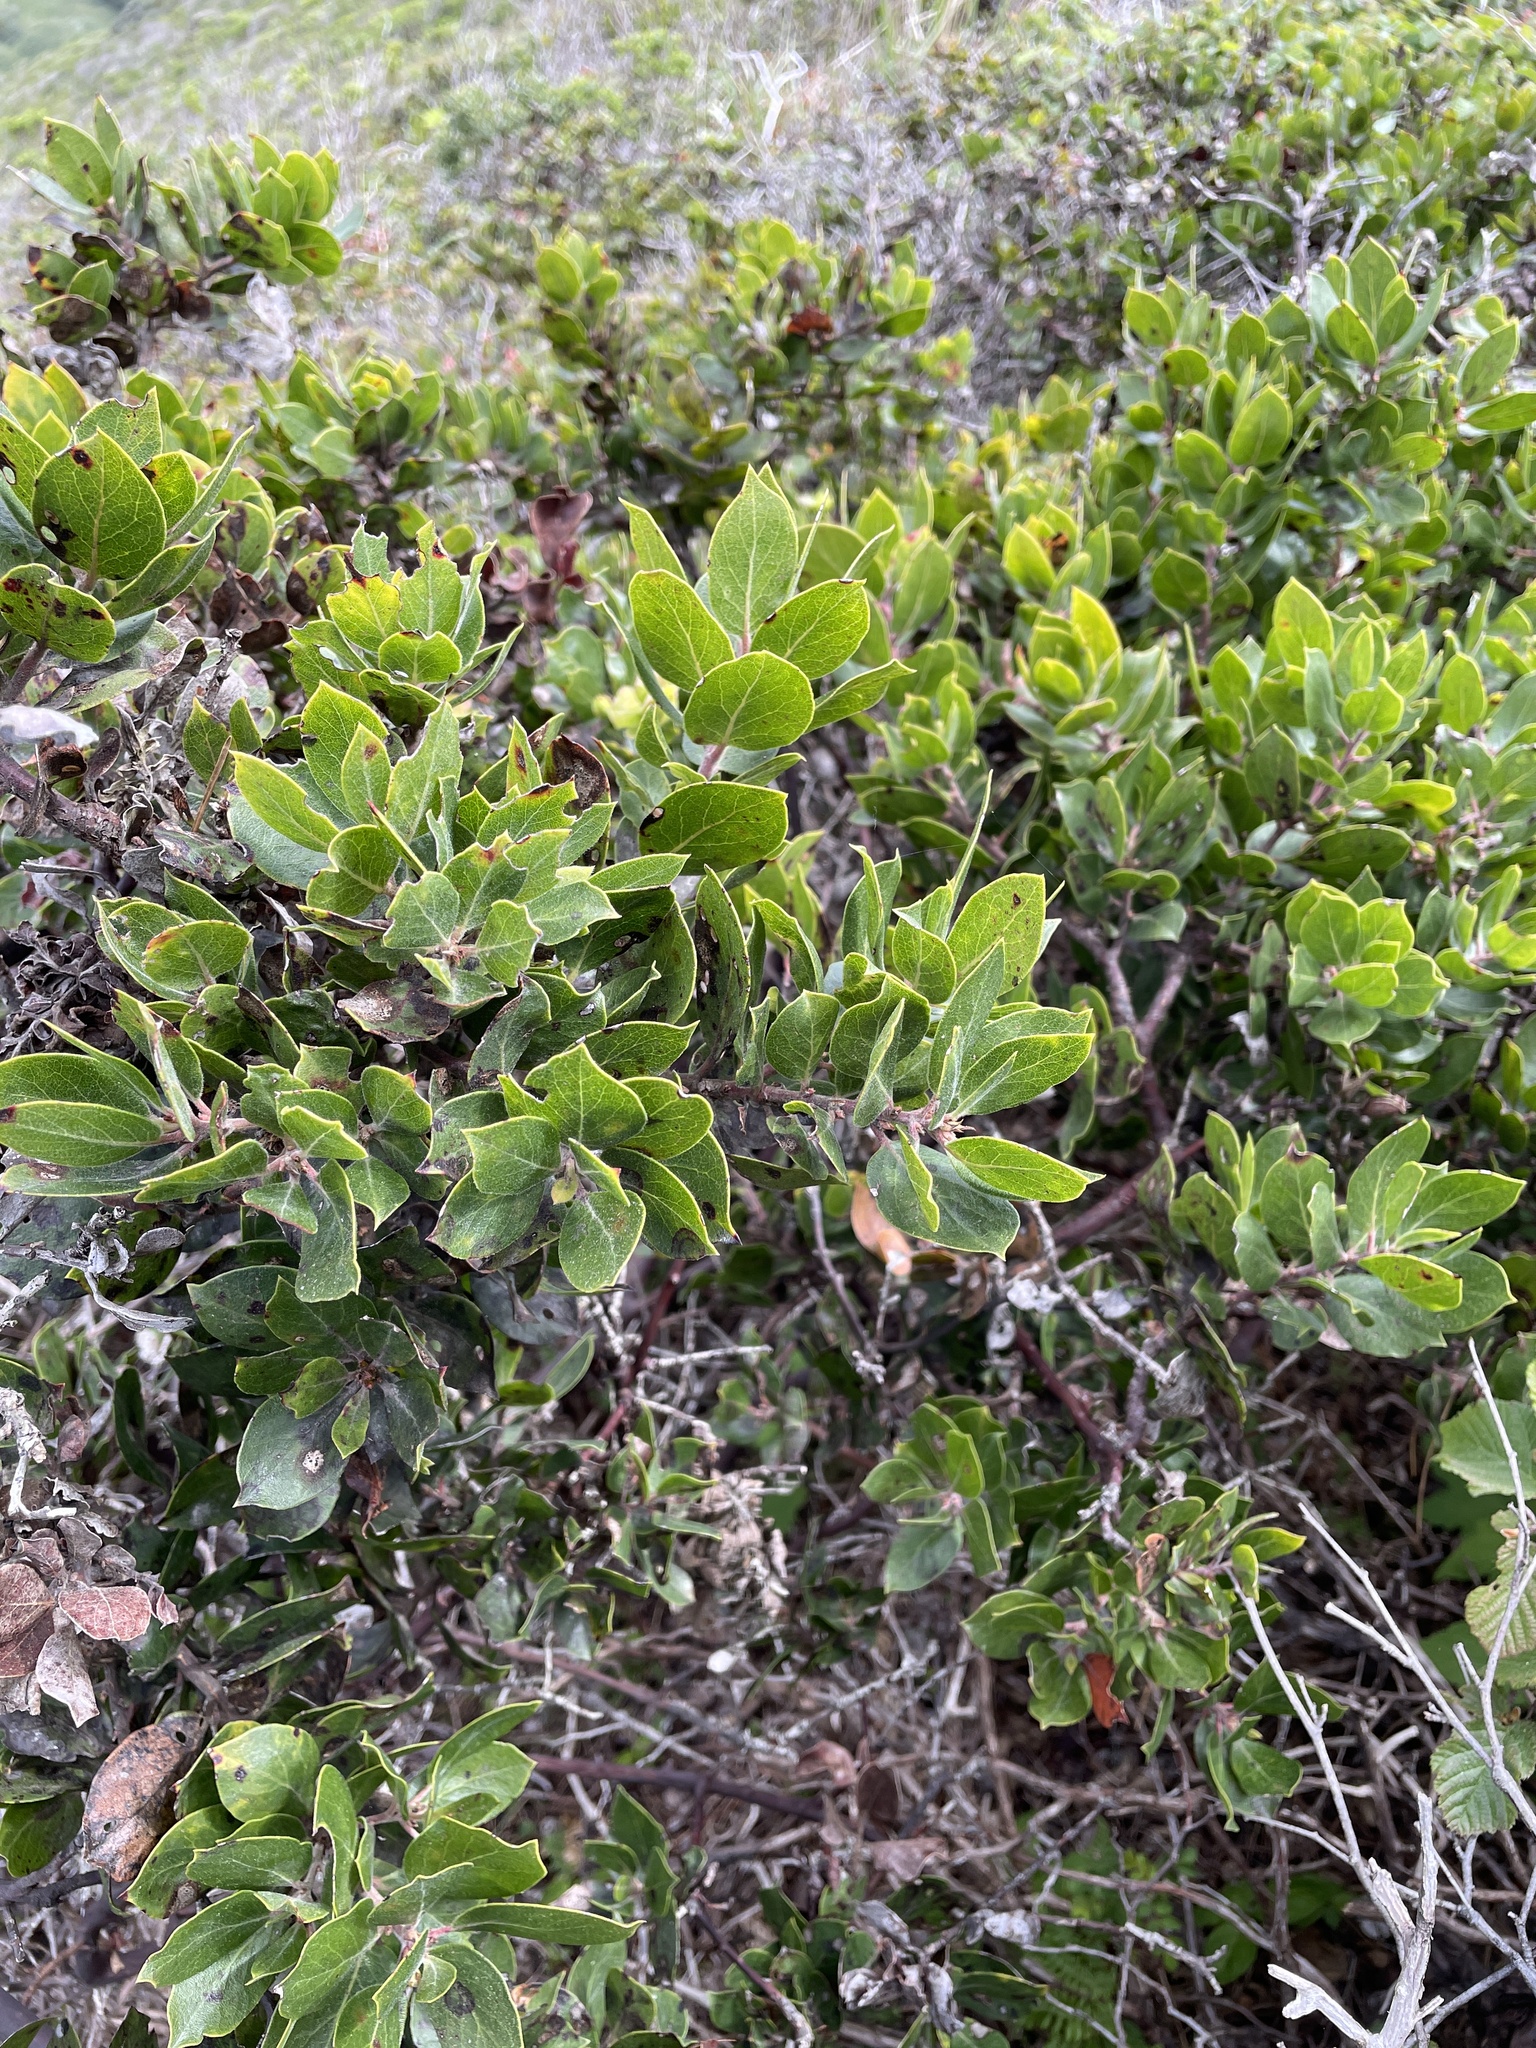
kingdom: Plantae
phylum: Tracheophyta
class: Magnoliopsida
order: Ericales
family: Ericaceae
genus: Arctostaphylos
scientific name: Arctostaphylos glandulosa
